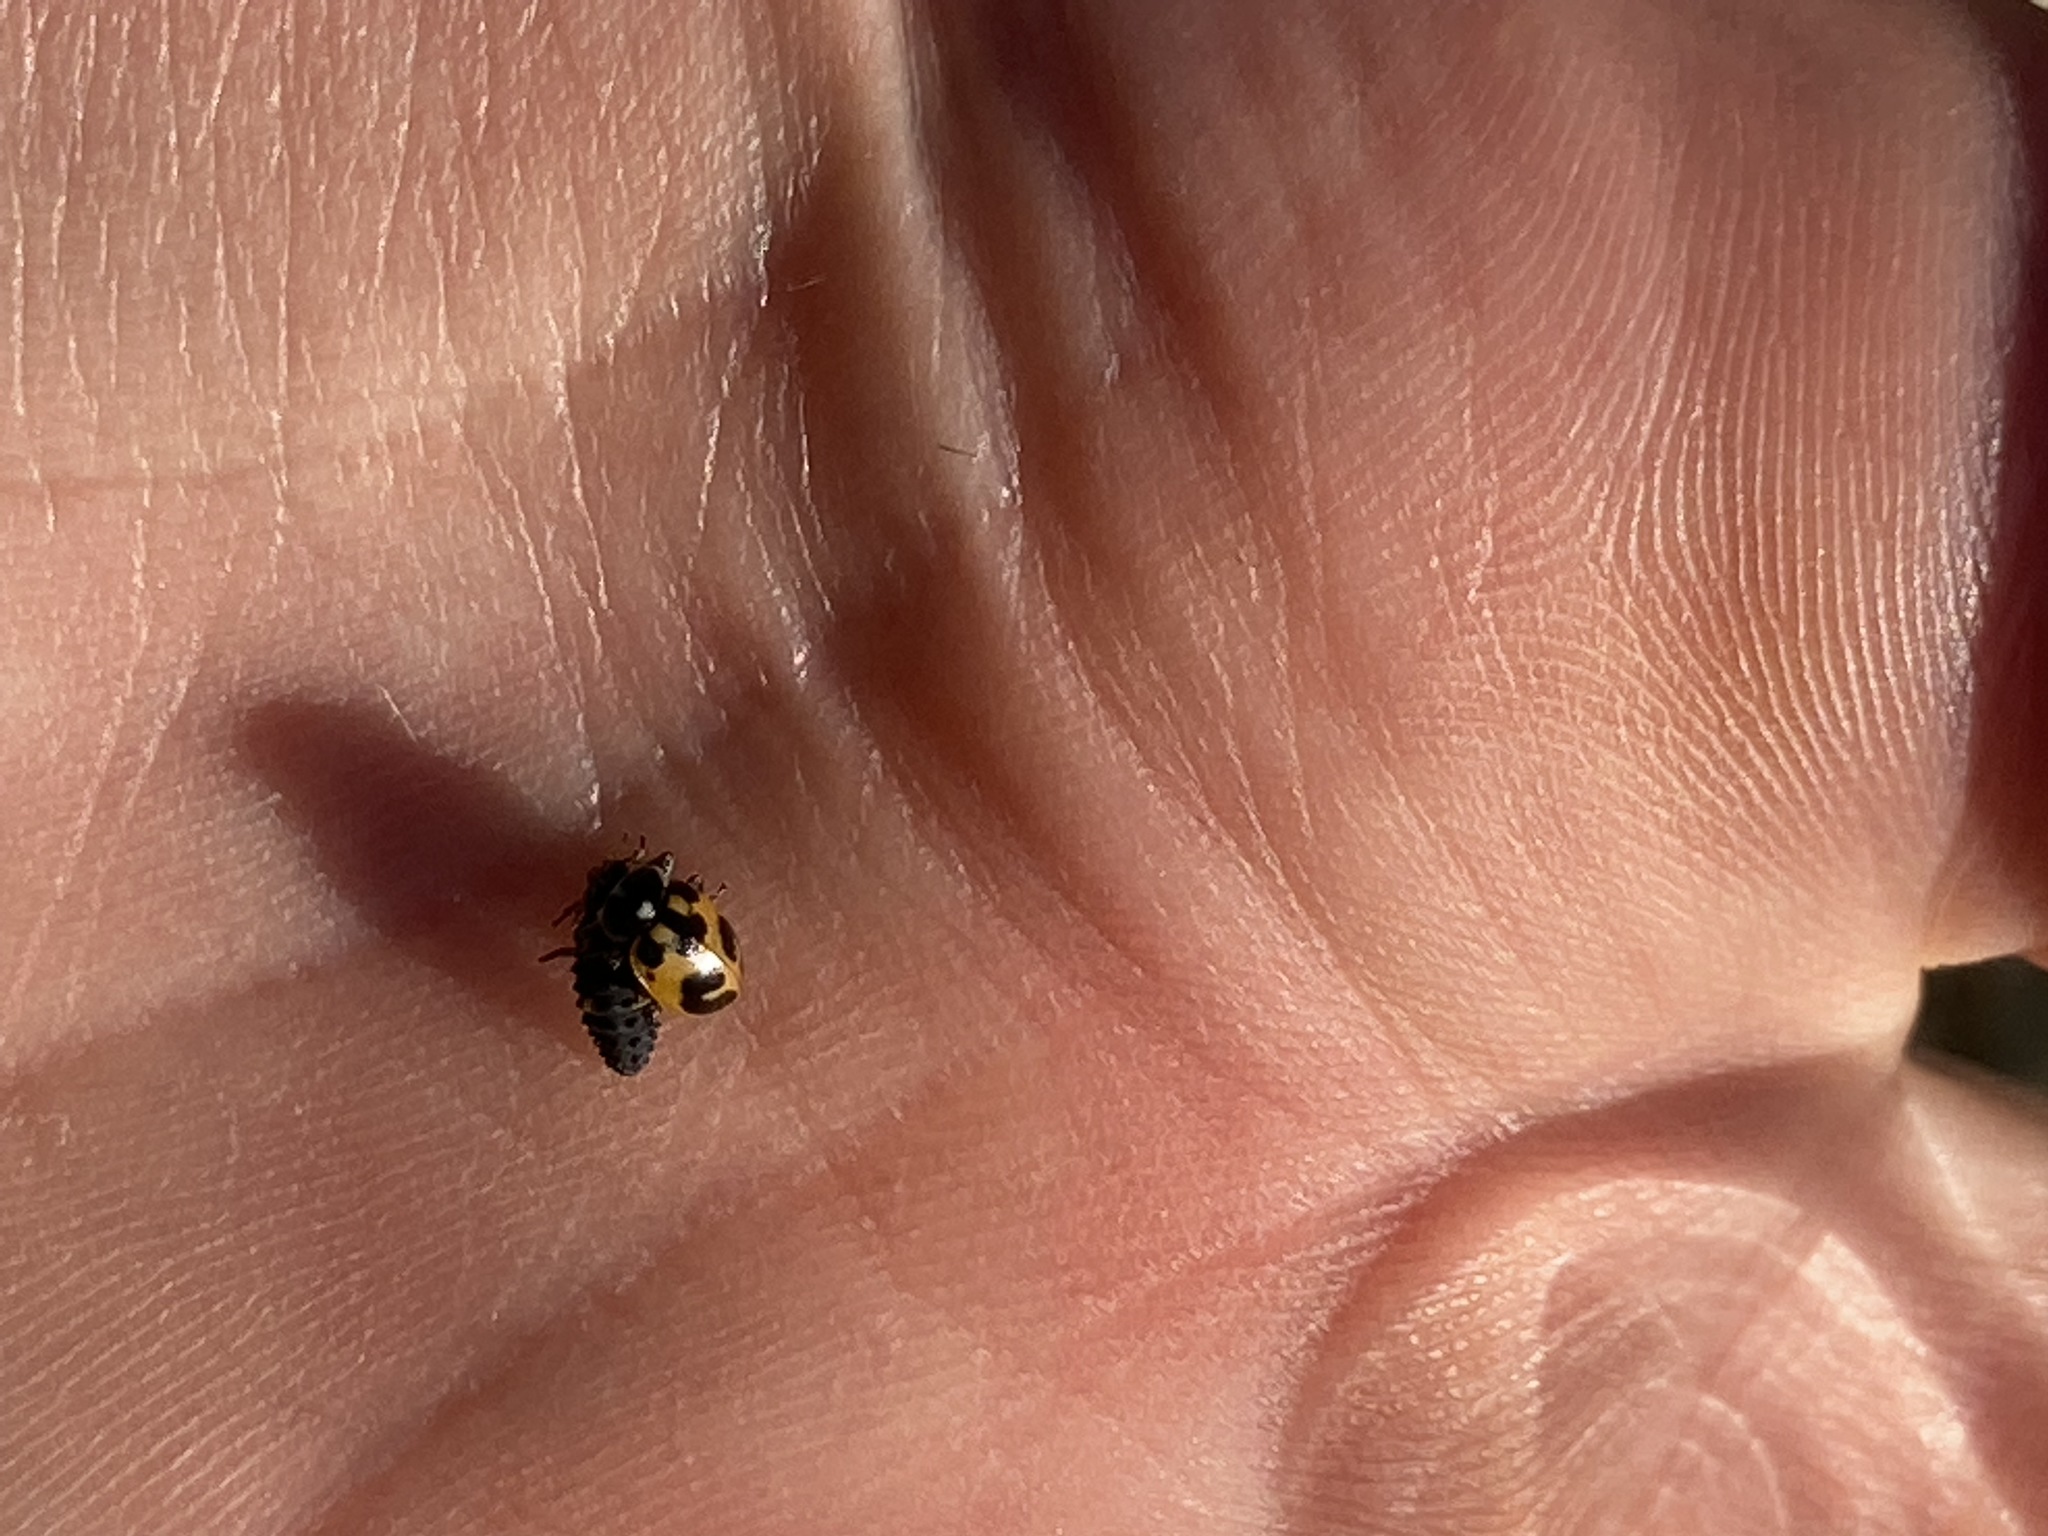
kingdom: Animalia
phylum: Arthropoda
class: Insecta
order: Coleoptera
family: Coccinellidae
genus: Hippodamia
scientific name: Hippodamia parenthesis
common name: Parenthesis lady beetle
